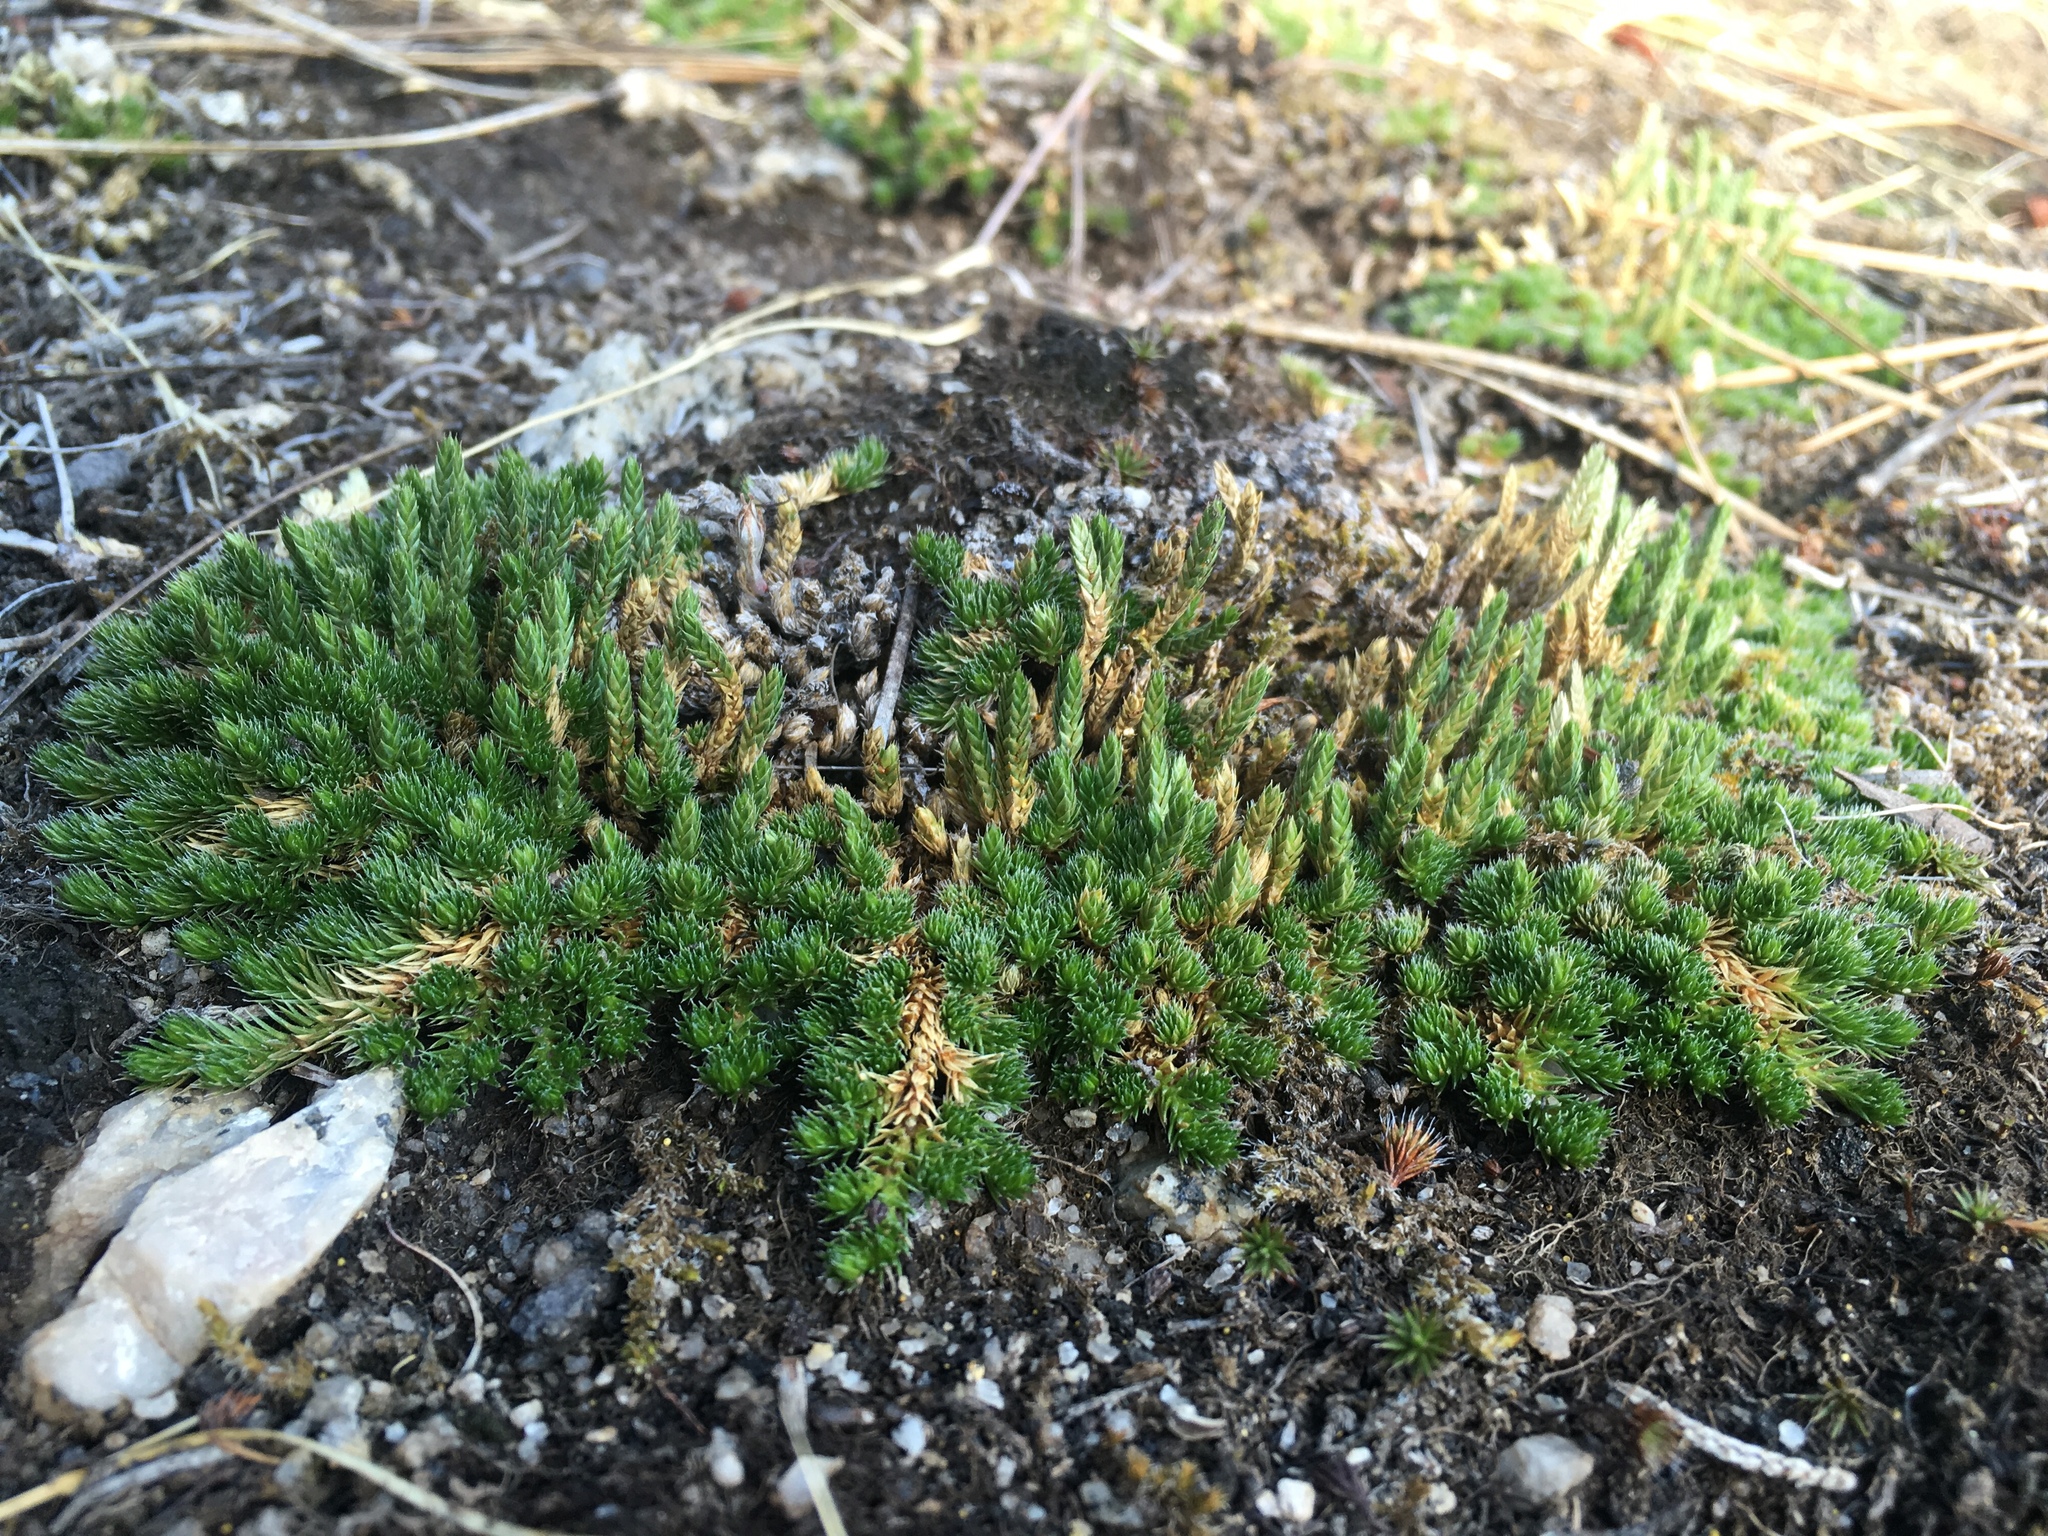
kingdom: Plantae
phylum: Tracheophyta
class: Lycopodiopsida
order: Selaginellales
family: Selaginellaceae
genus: Selaginella
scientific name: Selaginella densa
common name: Mountain spike-moss
